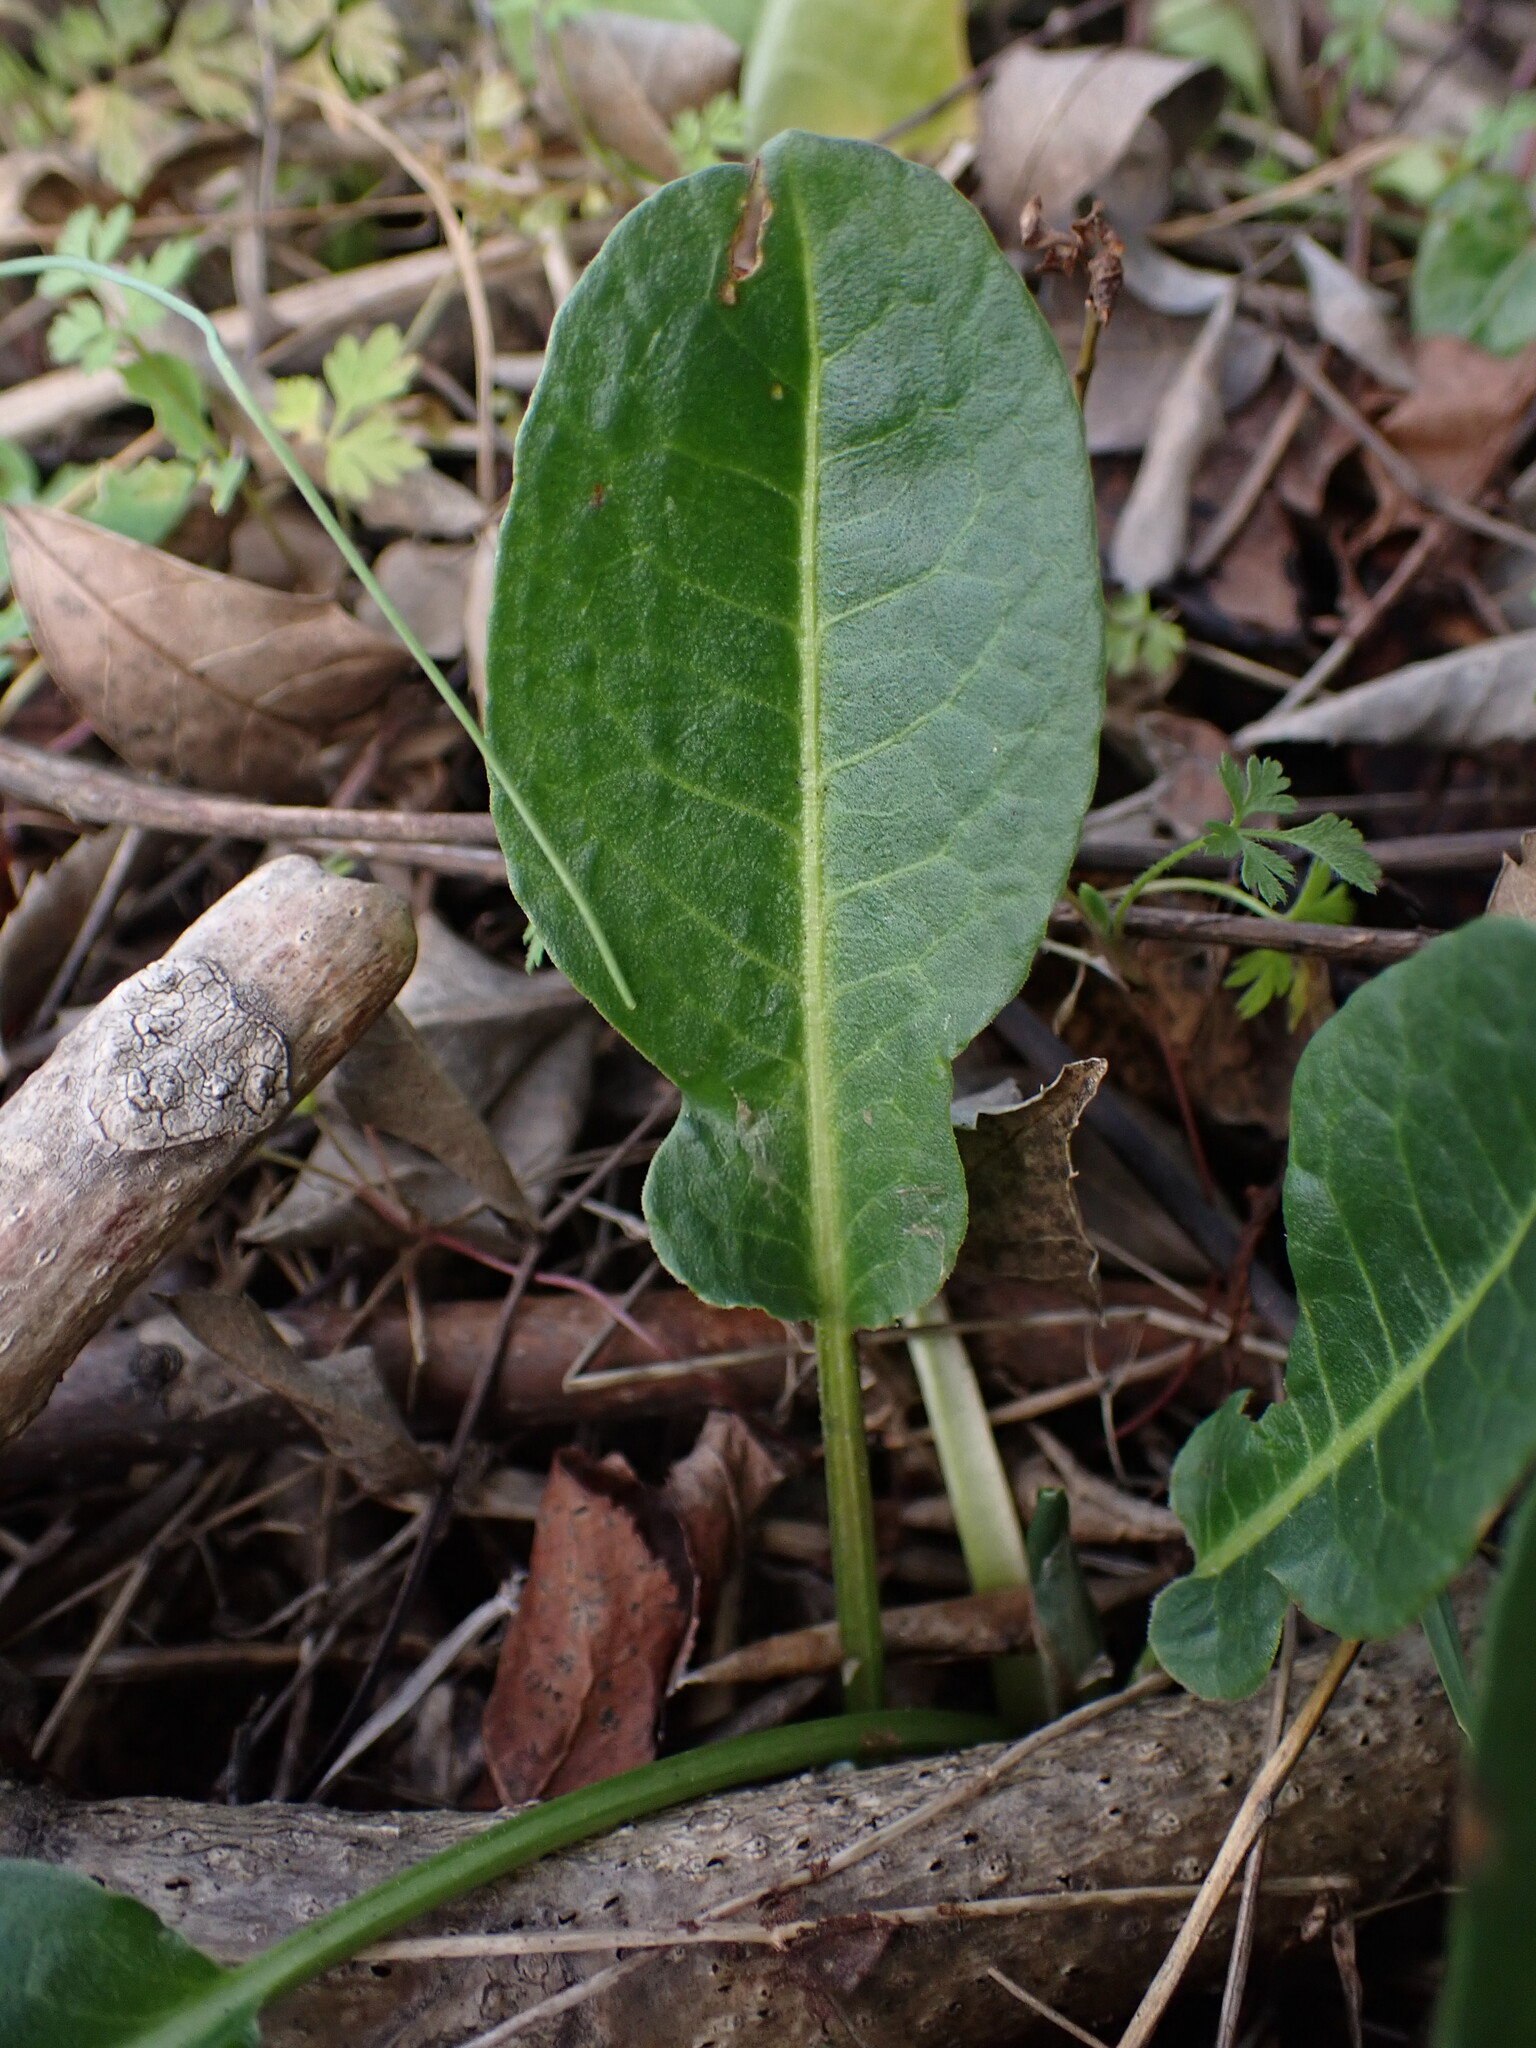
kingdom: Plantae
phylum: Tracheophyta
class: Magnoliopsida
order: Caryophyllales
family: Polygonaceae
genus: Rumex
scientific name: Rumex pulcher
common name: Fiddle dock
